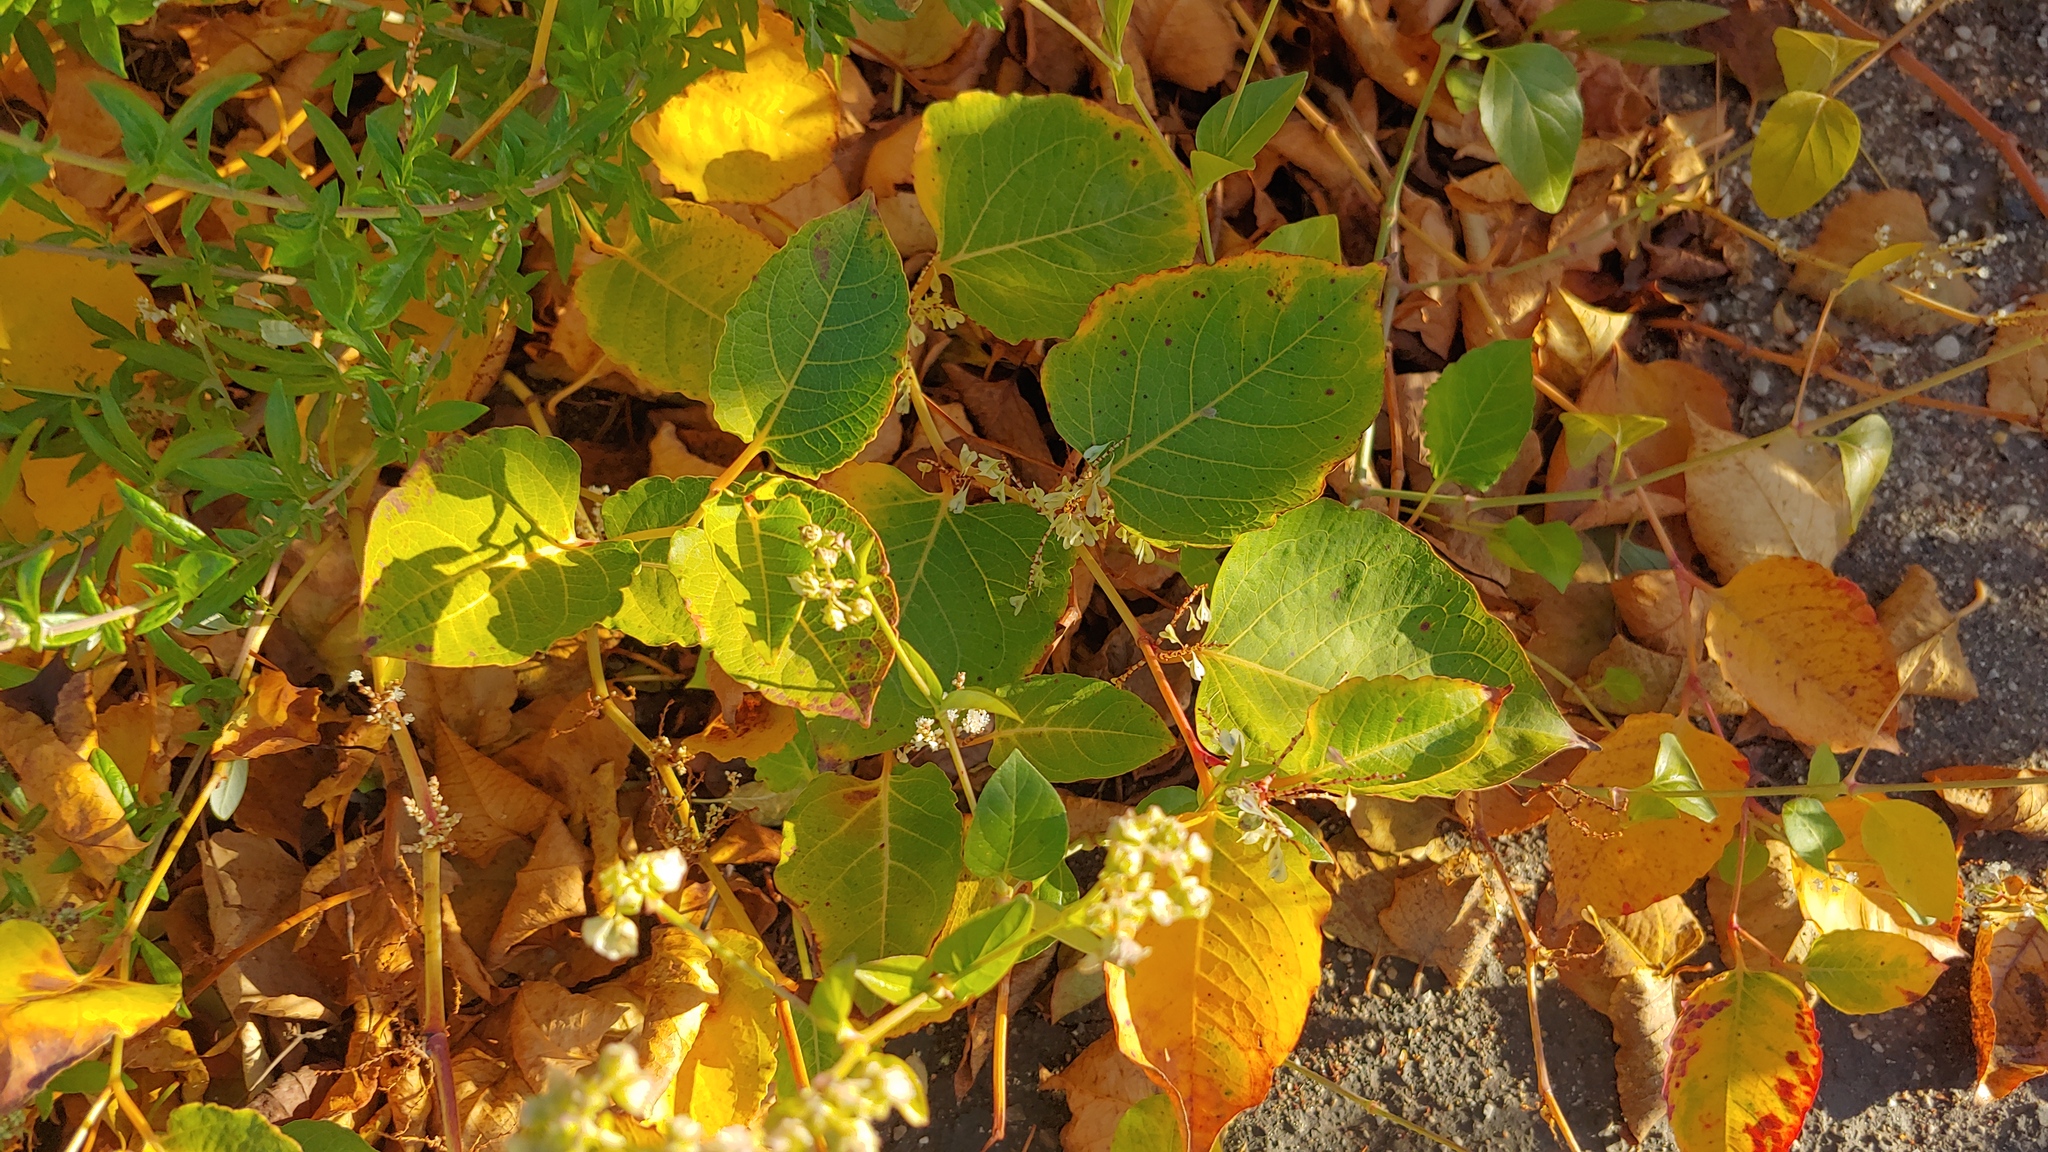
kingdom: Plantae
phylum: Tracheophyta
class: Magnoliopsida
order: Caryophyllales
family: Polygonaceae
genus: Reynoutria
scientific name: Reynoutria japonica
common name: Japanese knotweed
